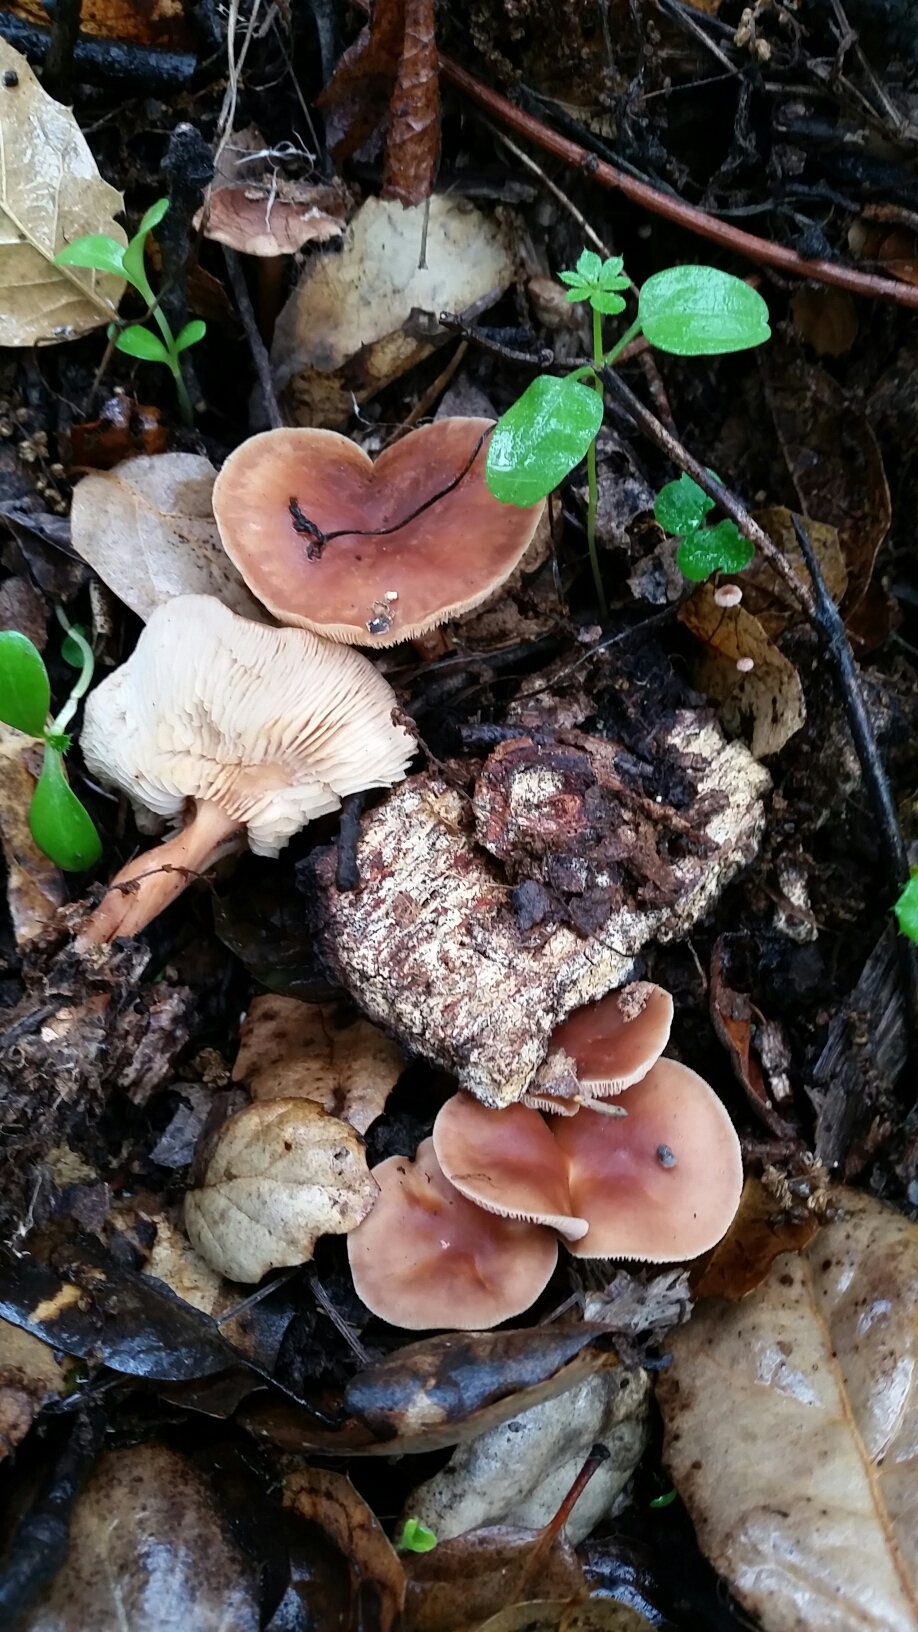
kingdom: Fungi
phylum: Basidiomycota
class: Agaricomycetes
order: Agaricales
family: Omphalotaceae
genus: Gymnopus
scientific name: Gymnopus dryophilus
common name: Penny top
